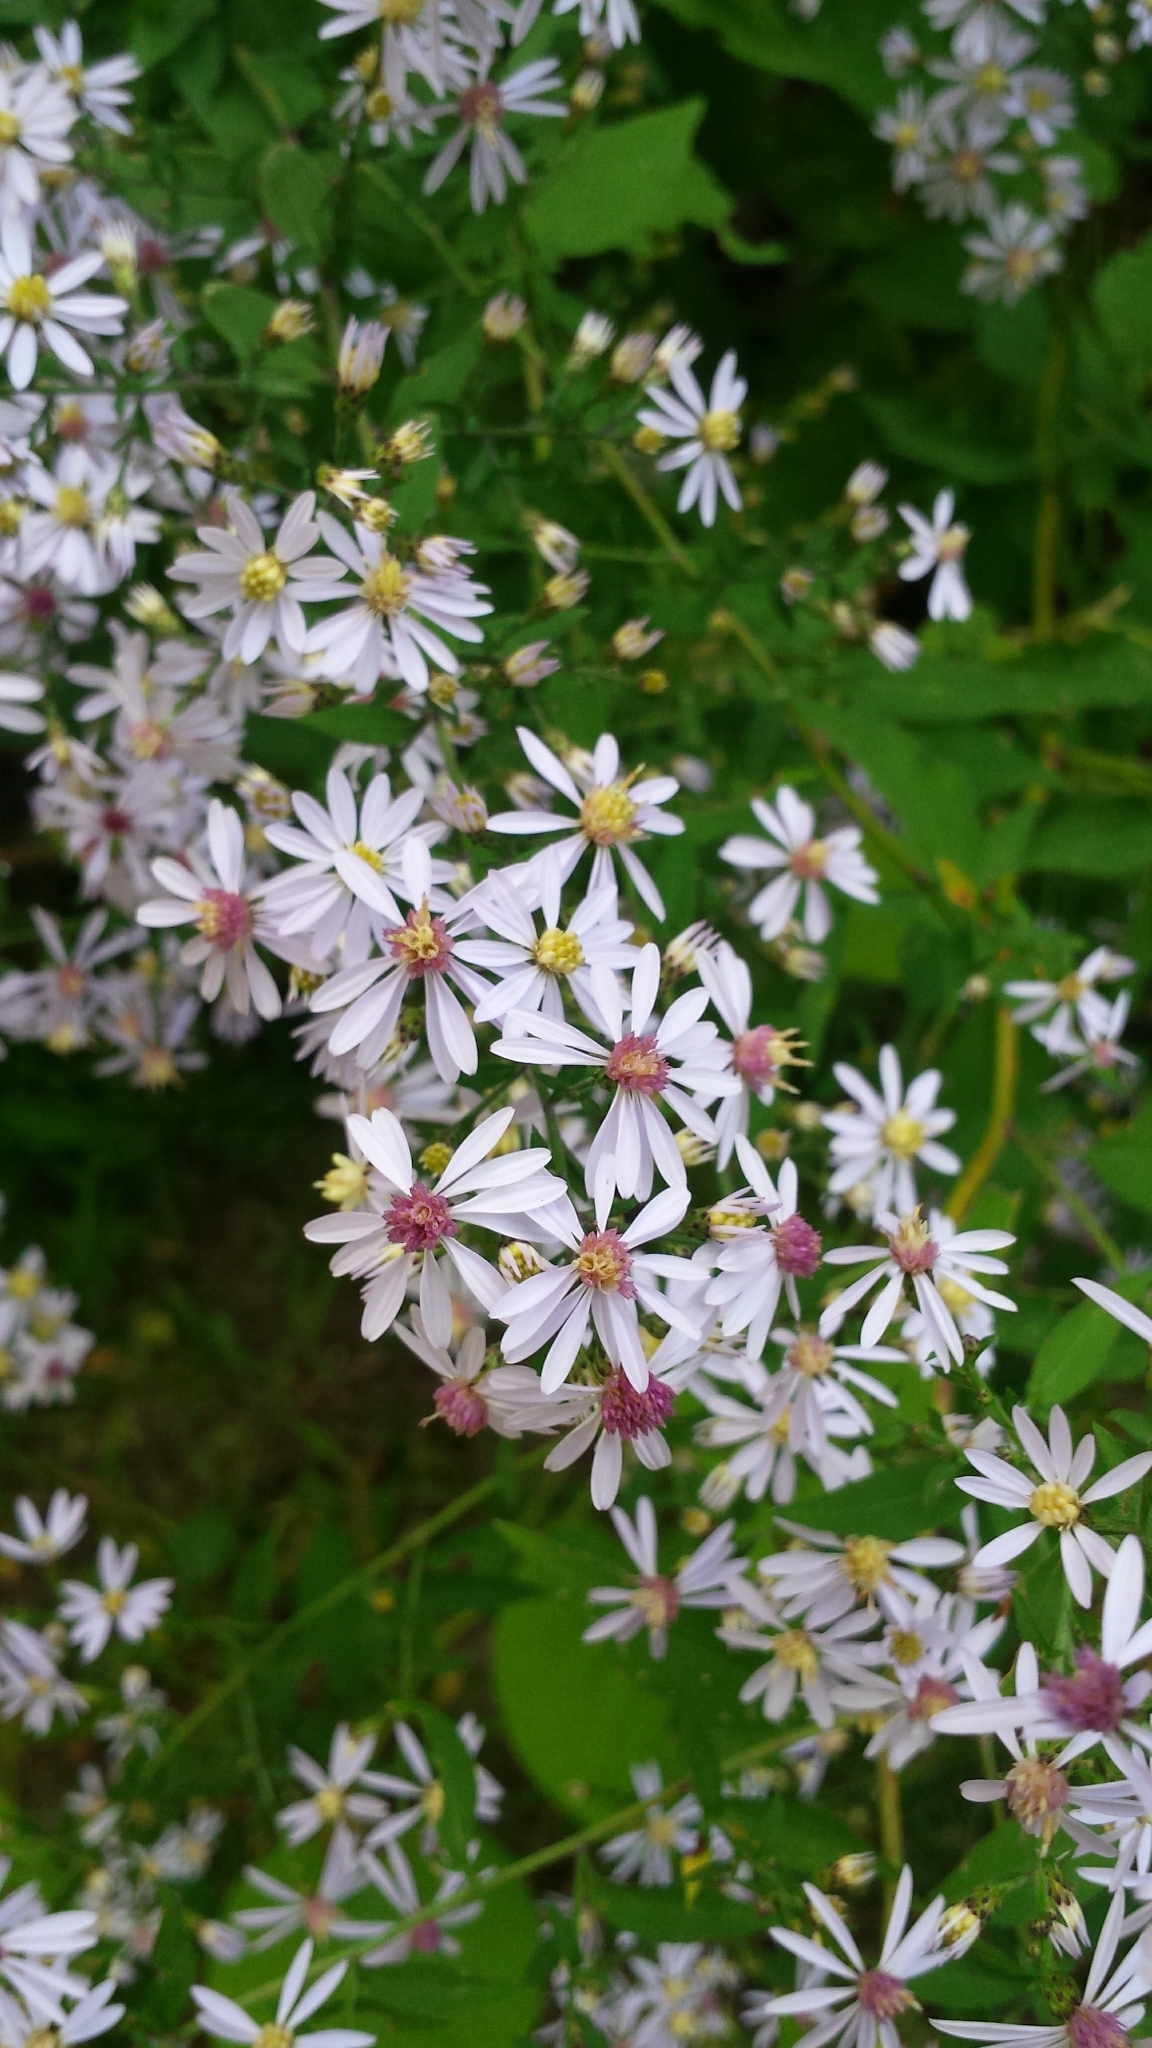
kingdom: Plantae
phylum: Tracheophyta
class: Magnoliopsida
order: Asterales
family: Asteraceae
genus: Symphyotrichum
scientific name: Symphyotrichum cordifolium
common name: Beeweed
